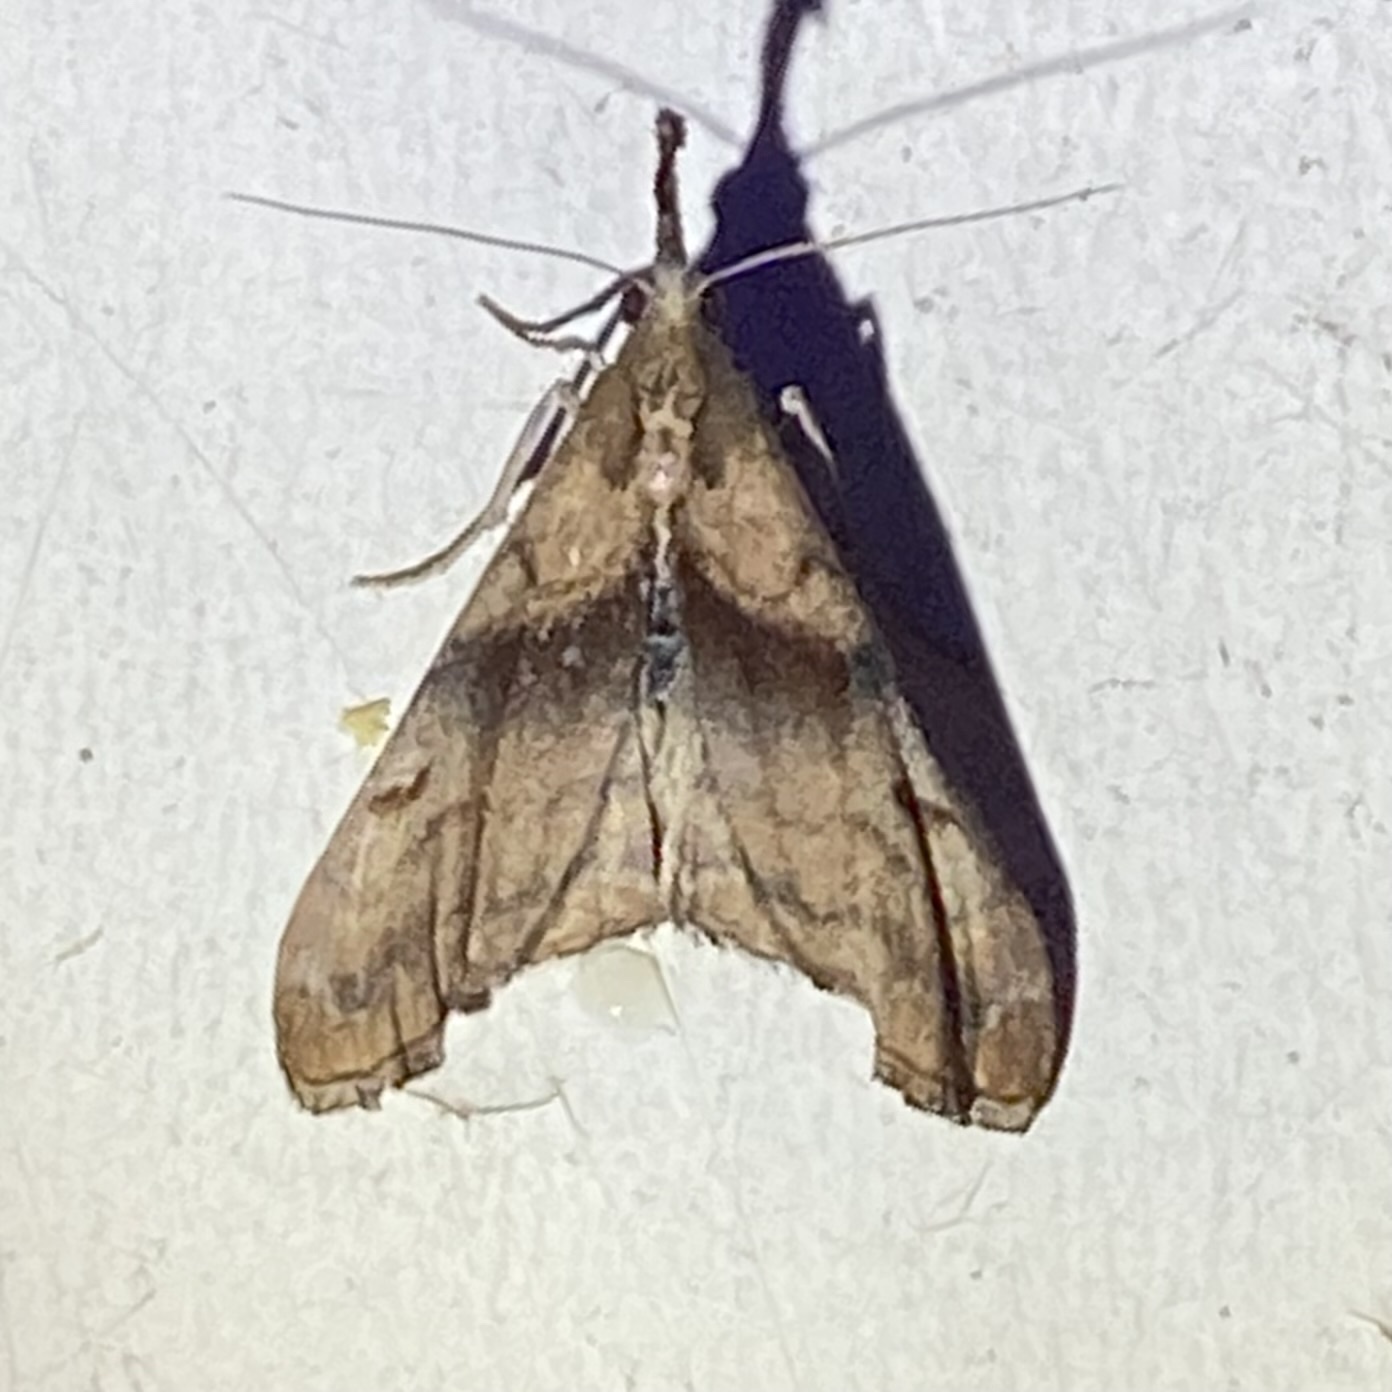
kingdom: Animalia
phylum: Arthropoda
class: Insecta
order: Lepidoptera
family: Erebidae
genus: Palthis
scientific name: Palthis angulalis
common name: Dark-spotted palthis moth
